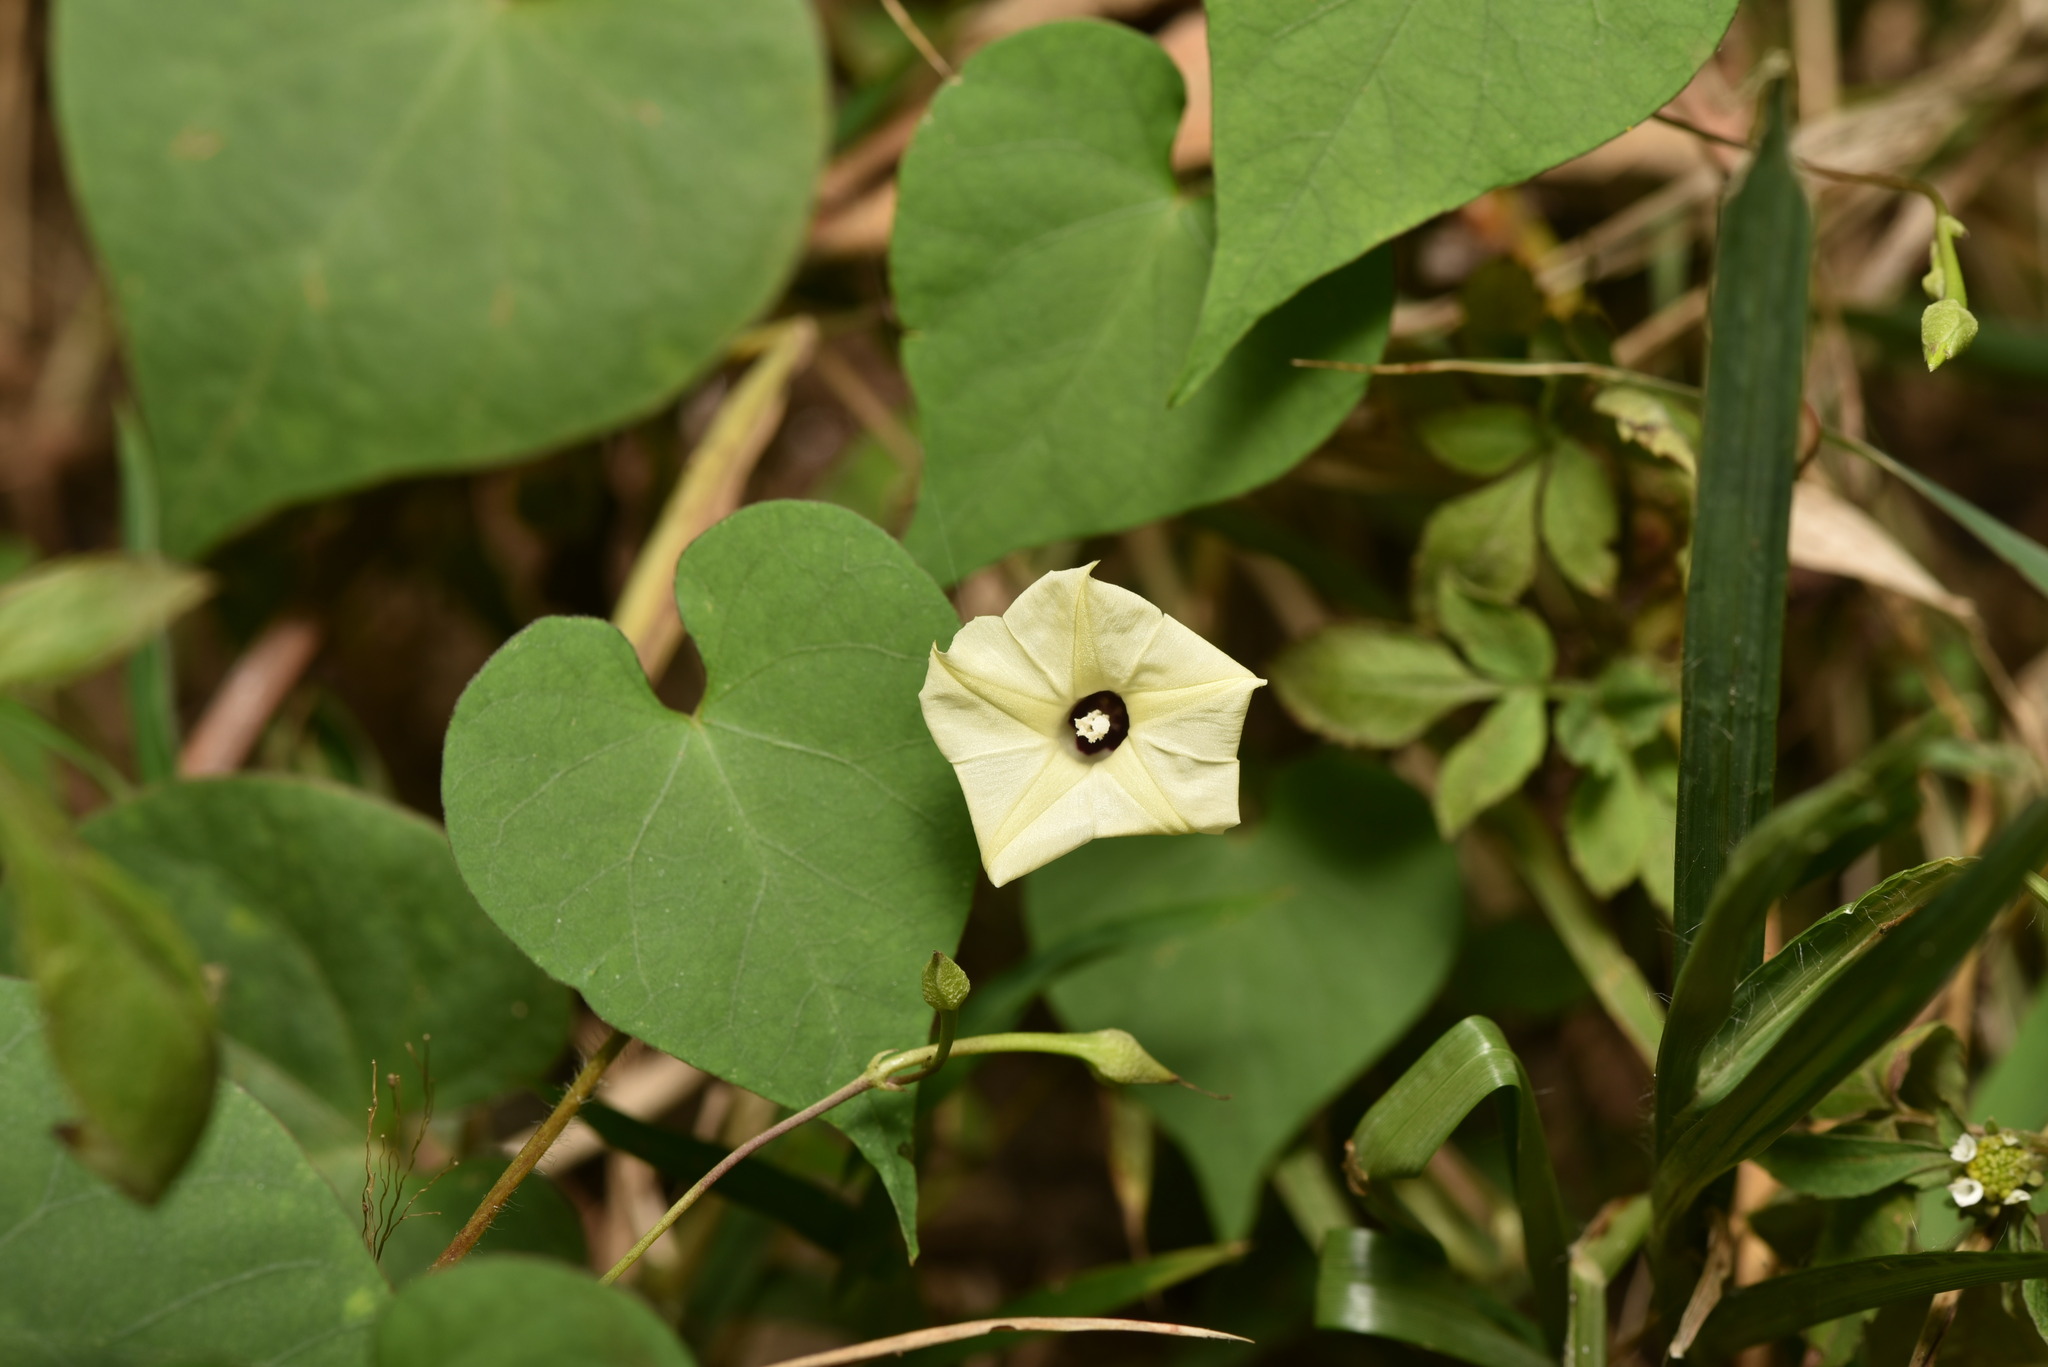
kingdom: Plantae
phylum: Tracheophyta
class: Magnoliopsida
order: Solanales
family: Convolvulaceae
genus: Ipomoea
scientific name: Ipomoea obscura
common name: Obscure morning-glory
